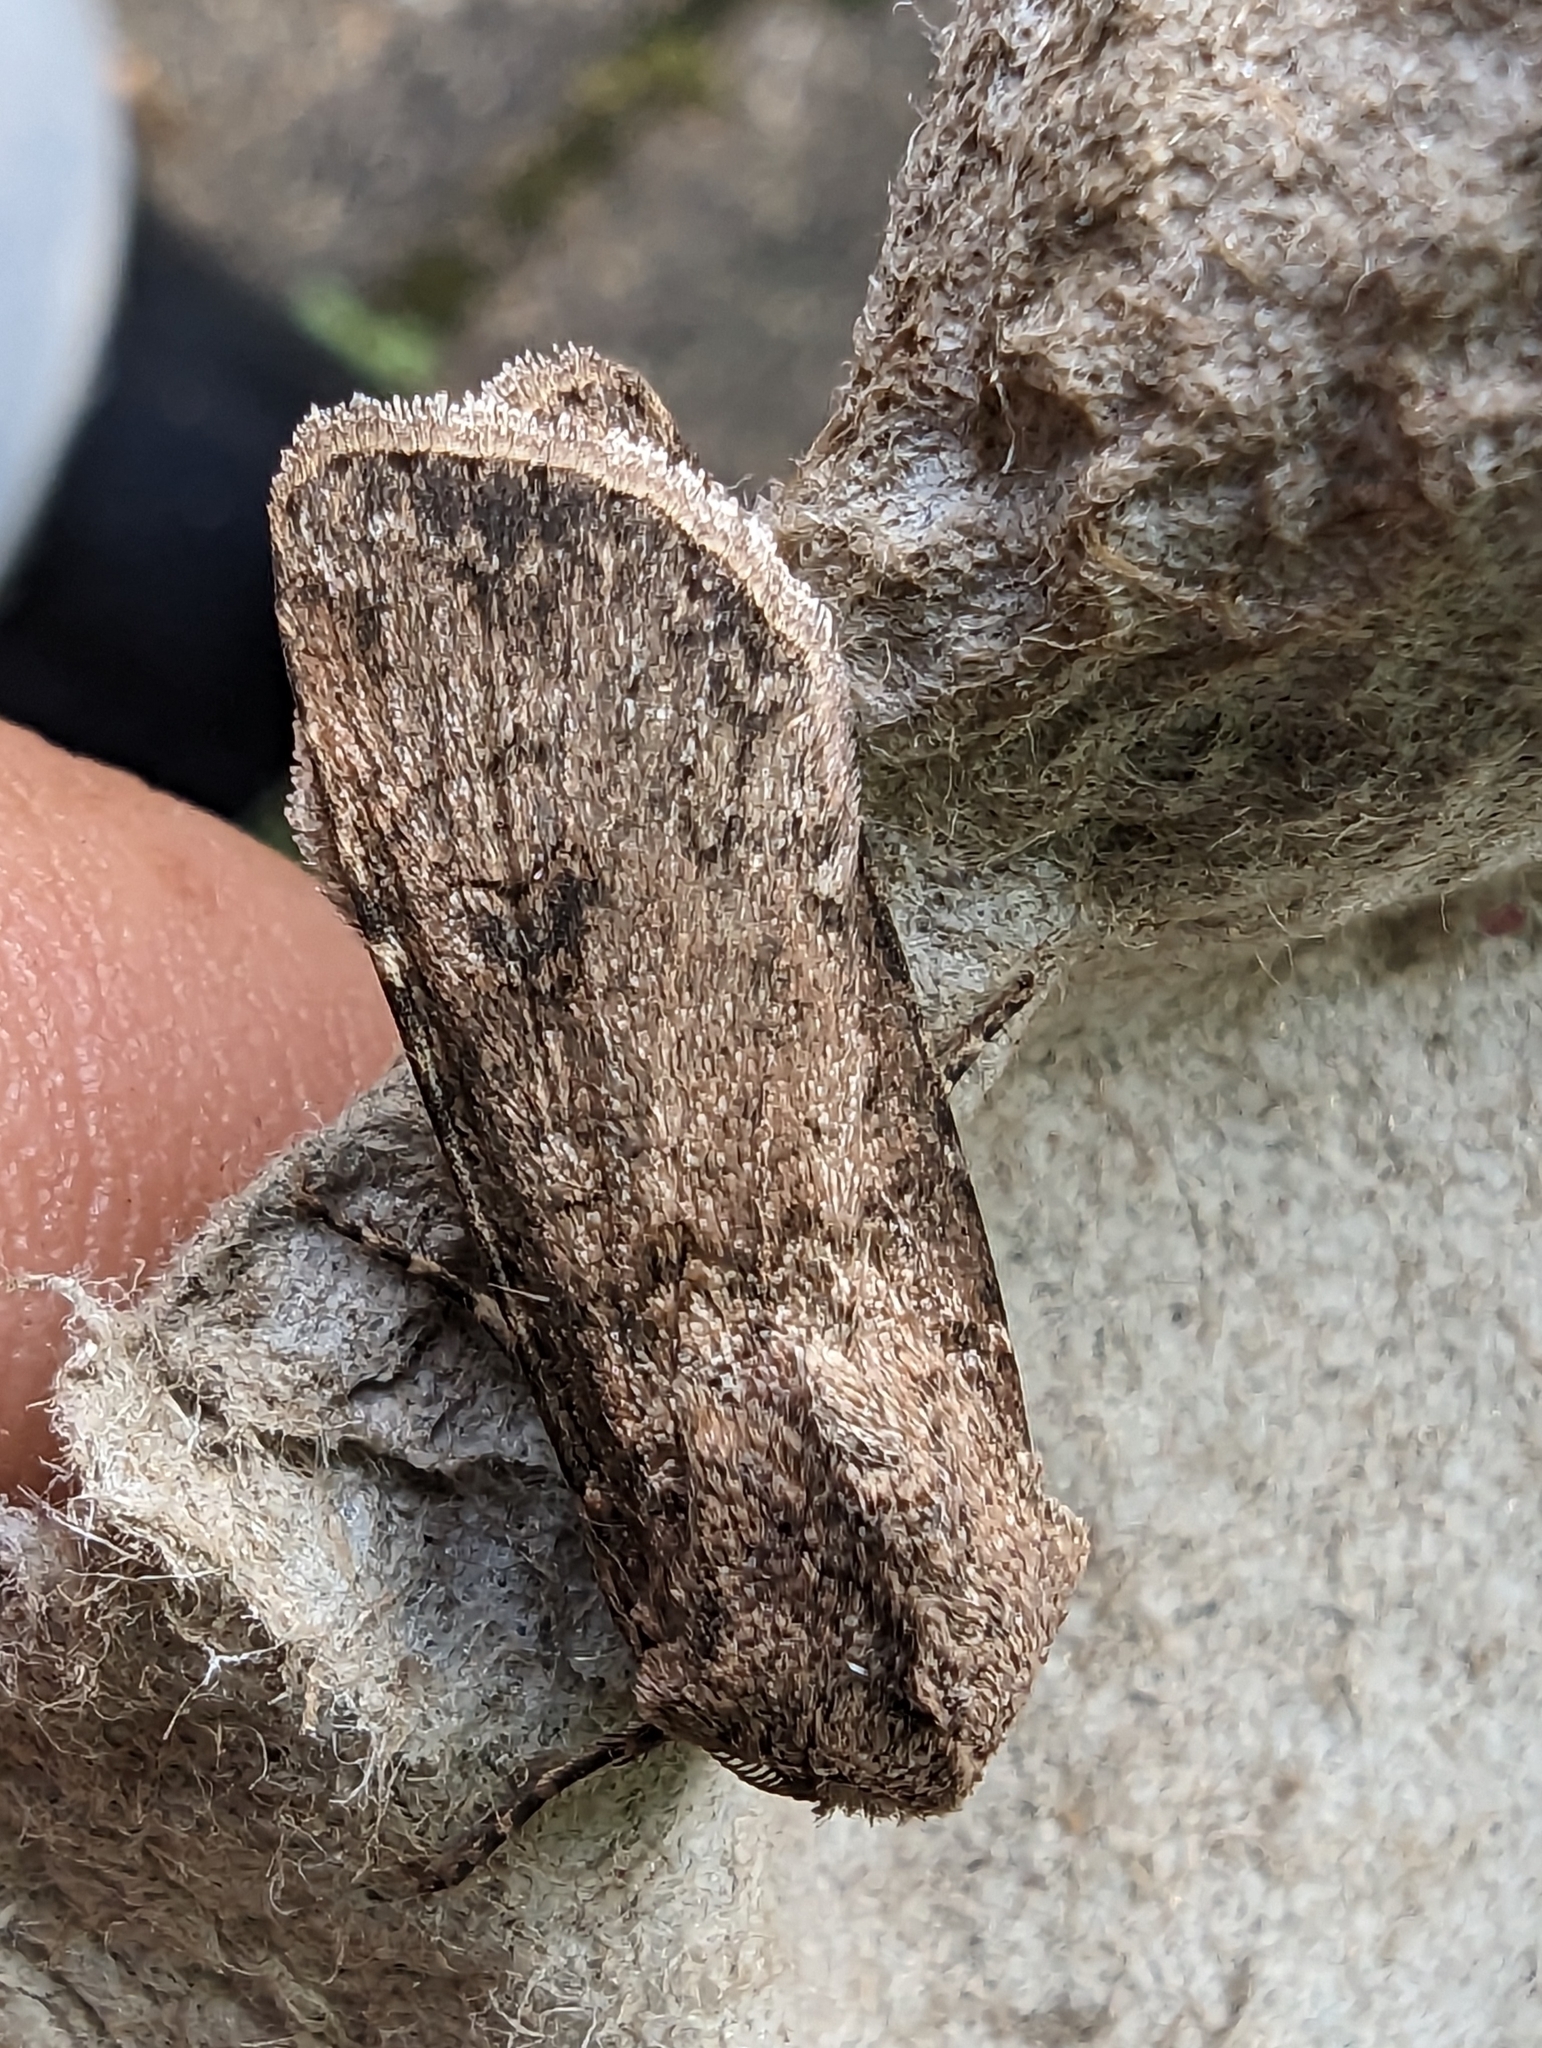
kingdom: Animalia
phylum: Arthropoda
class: Insecta
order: Lepidoptera
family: Noctuidae
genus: Agrotis
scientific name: Agrotis segetum
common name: Turnip moth
